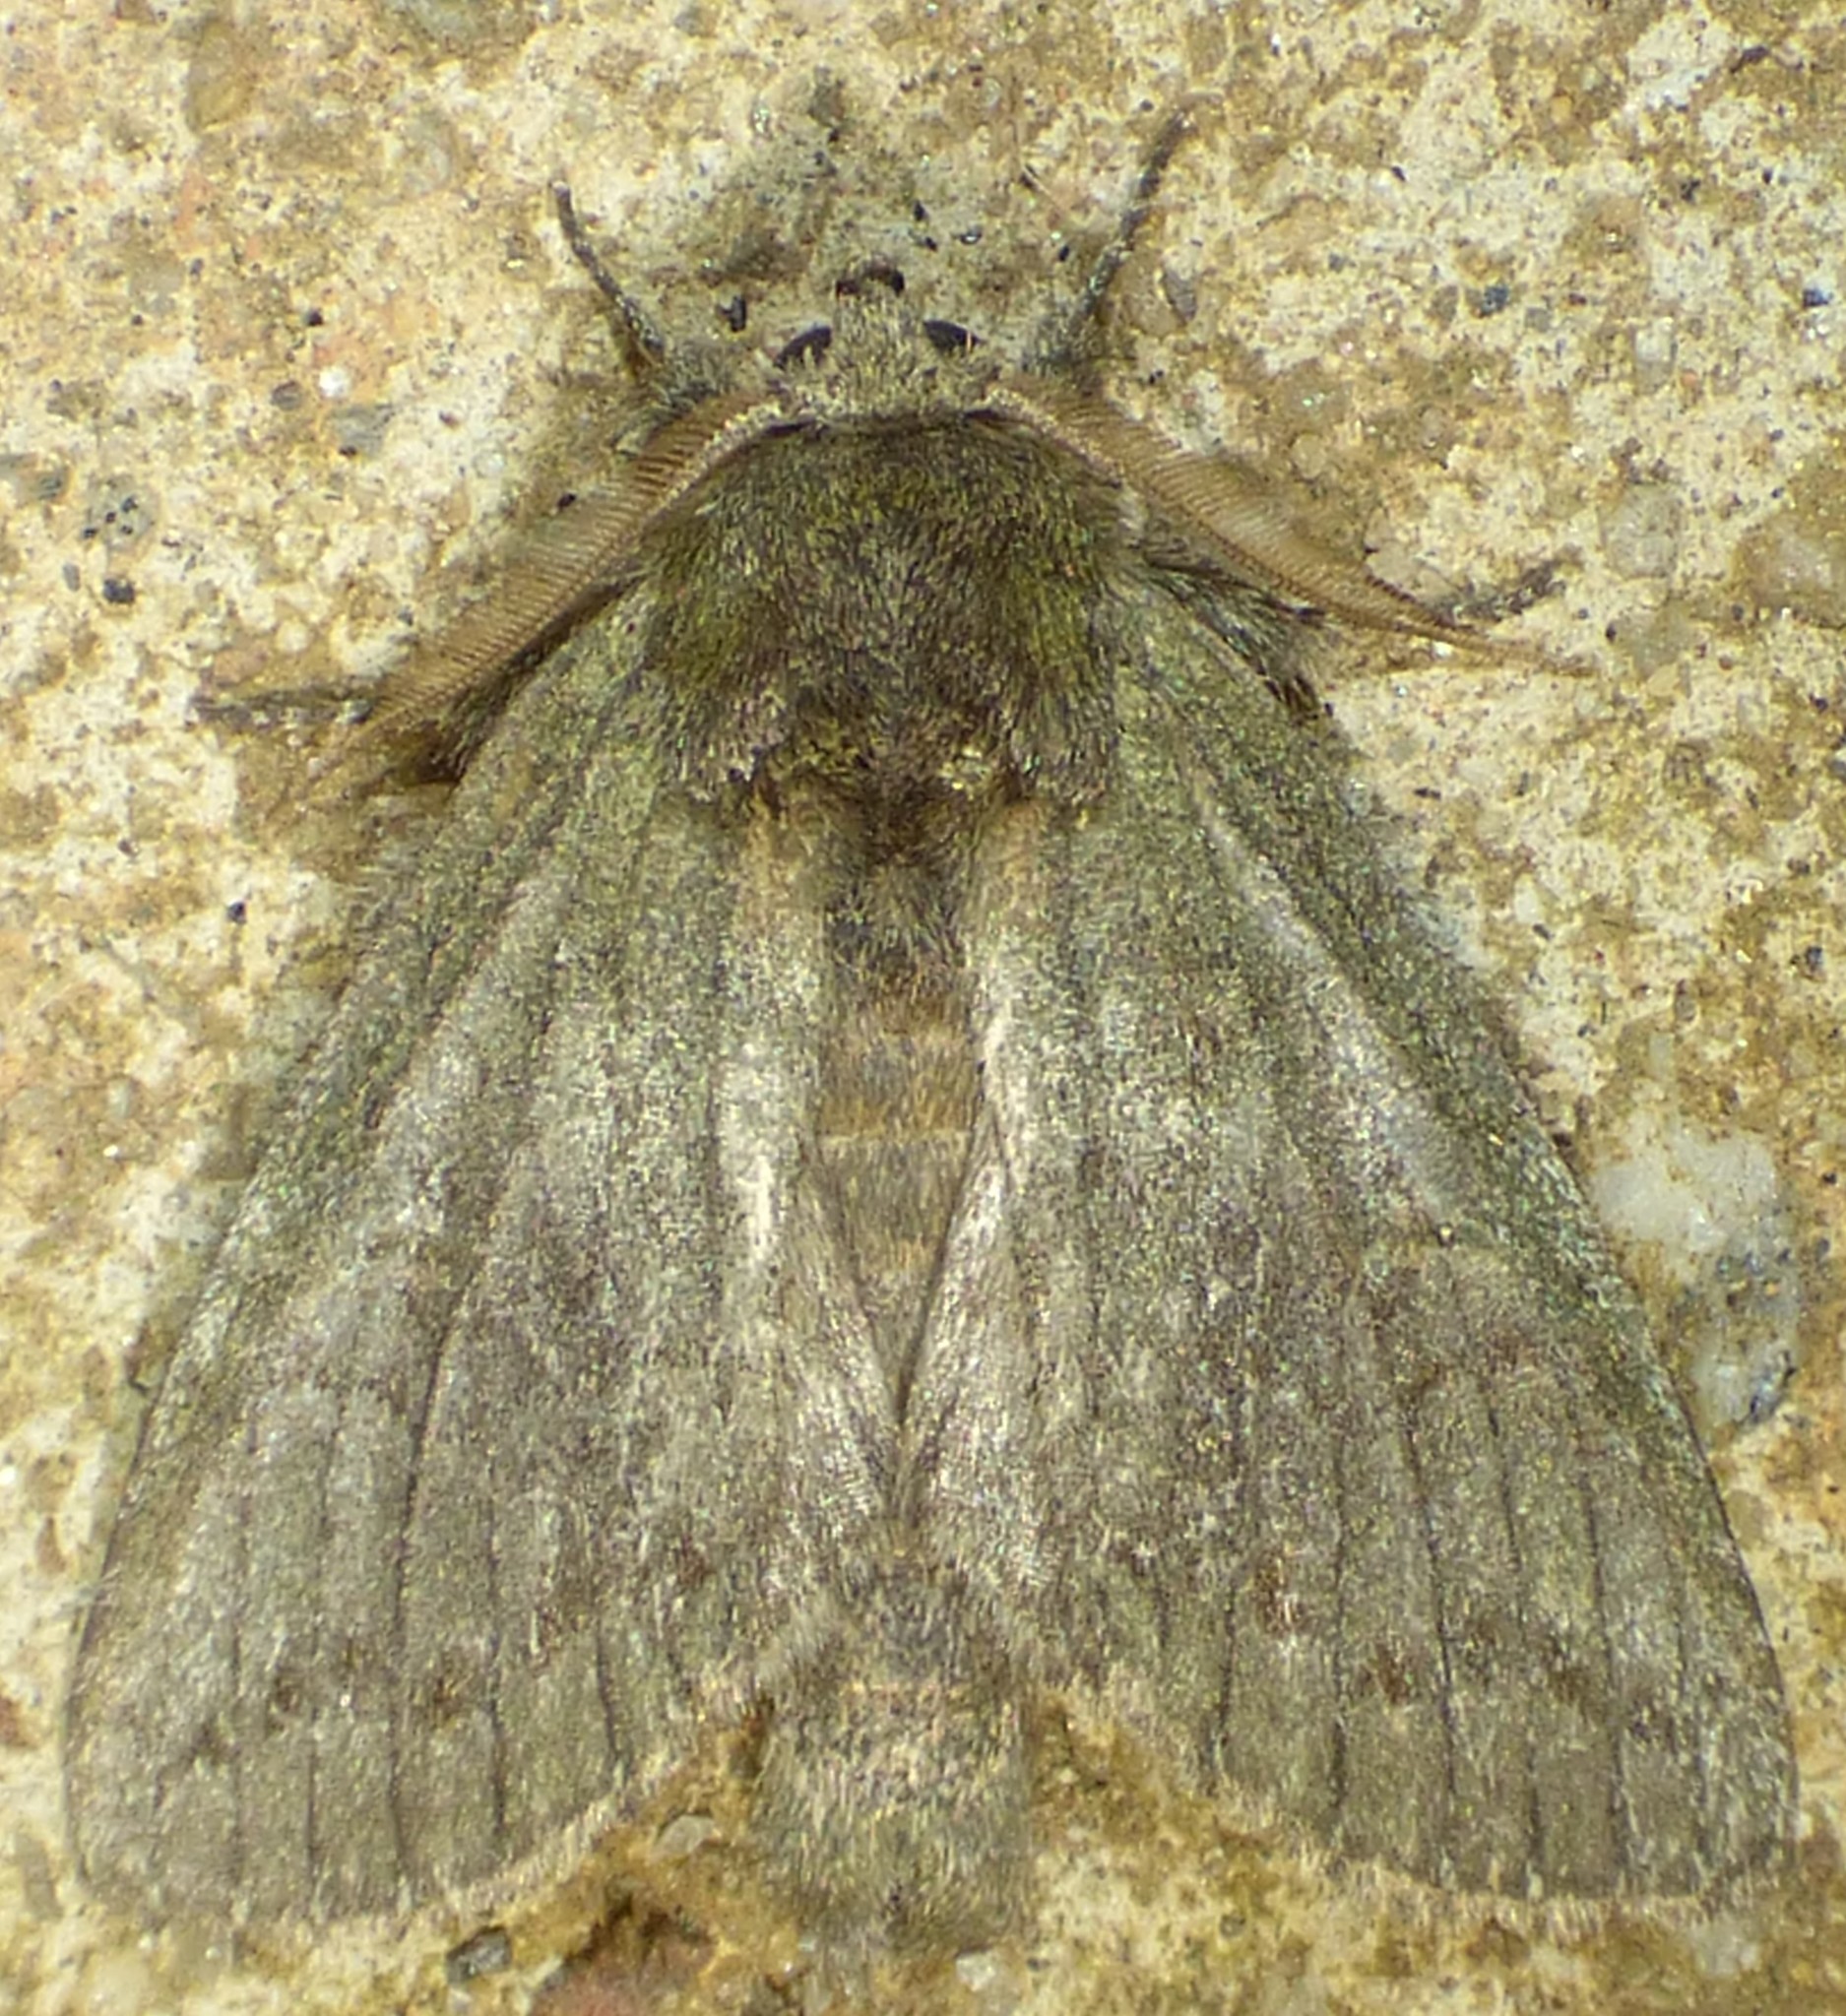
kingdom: Animalia
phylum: Arthropoda
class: Insecta
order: Lepidoptera
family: Notodontidae
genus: Disphragis
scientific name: Disphragis Cecrita guttivitta
